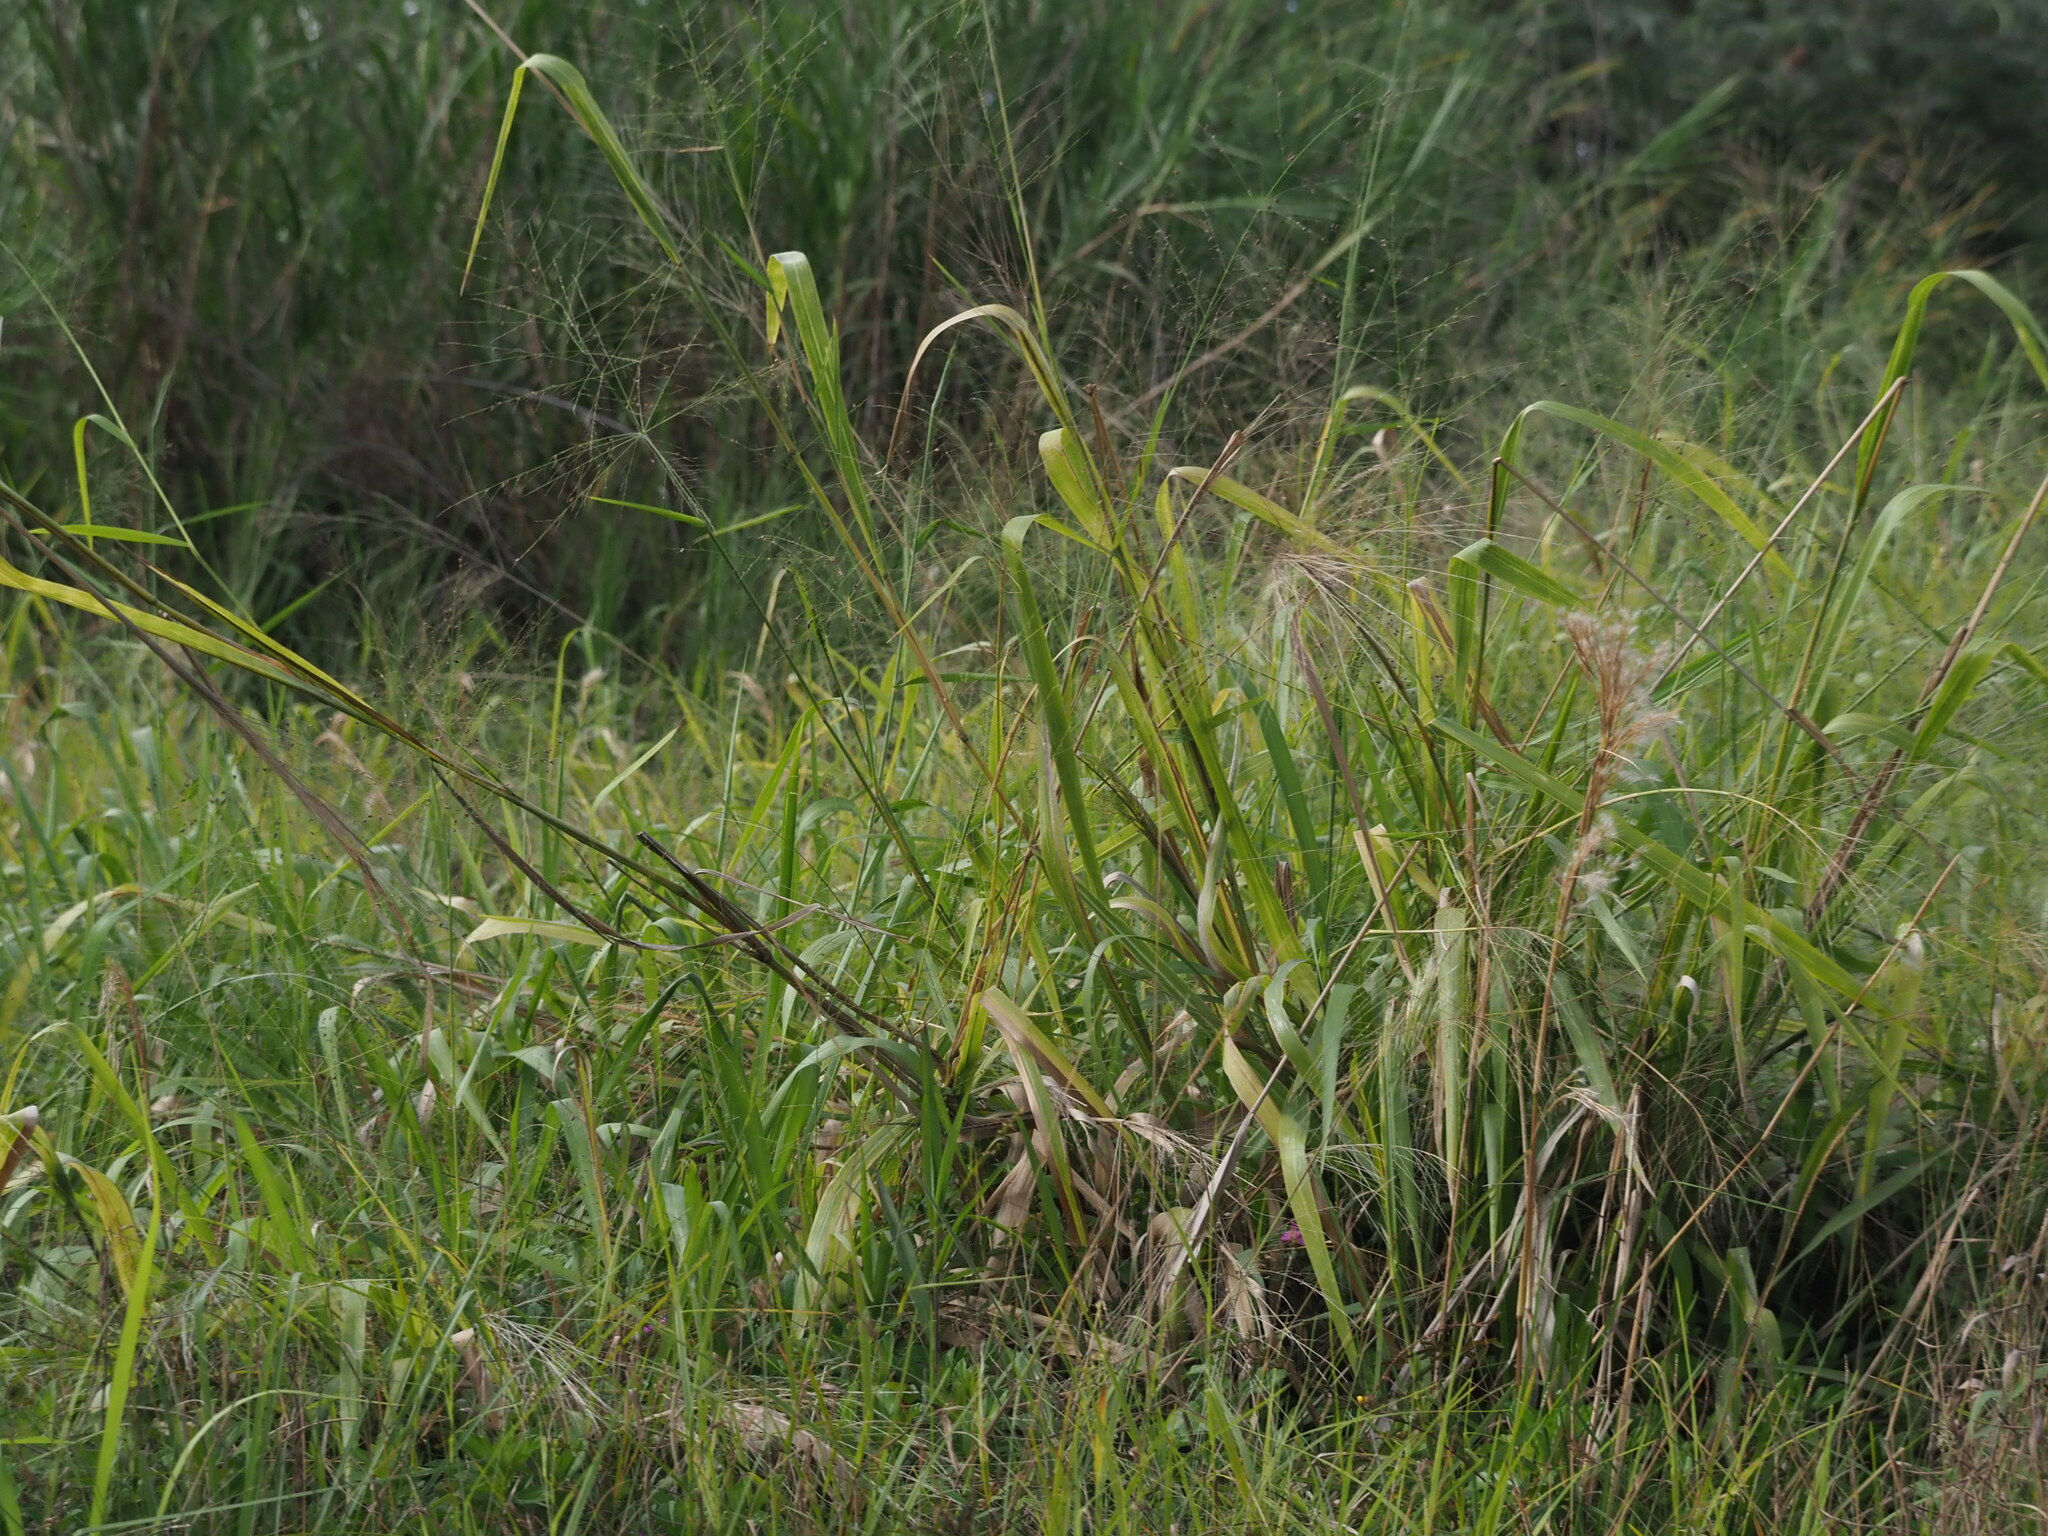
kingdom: Plantae
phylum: Tracheophyta
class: Liliopsida
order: Poales
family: Poaceae
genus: Megathyrsus
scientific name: Megathyrsus maximus
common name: Guineagrass
